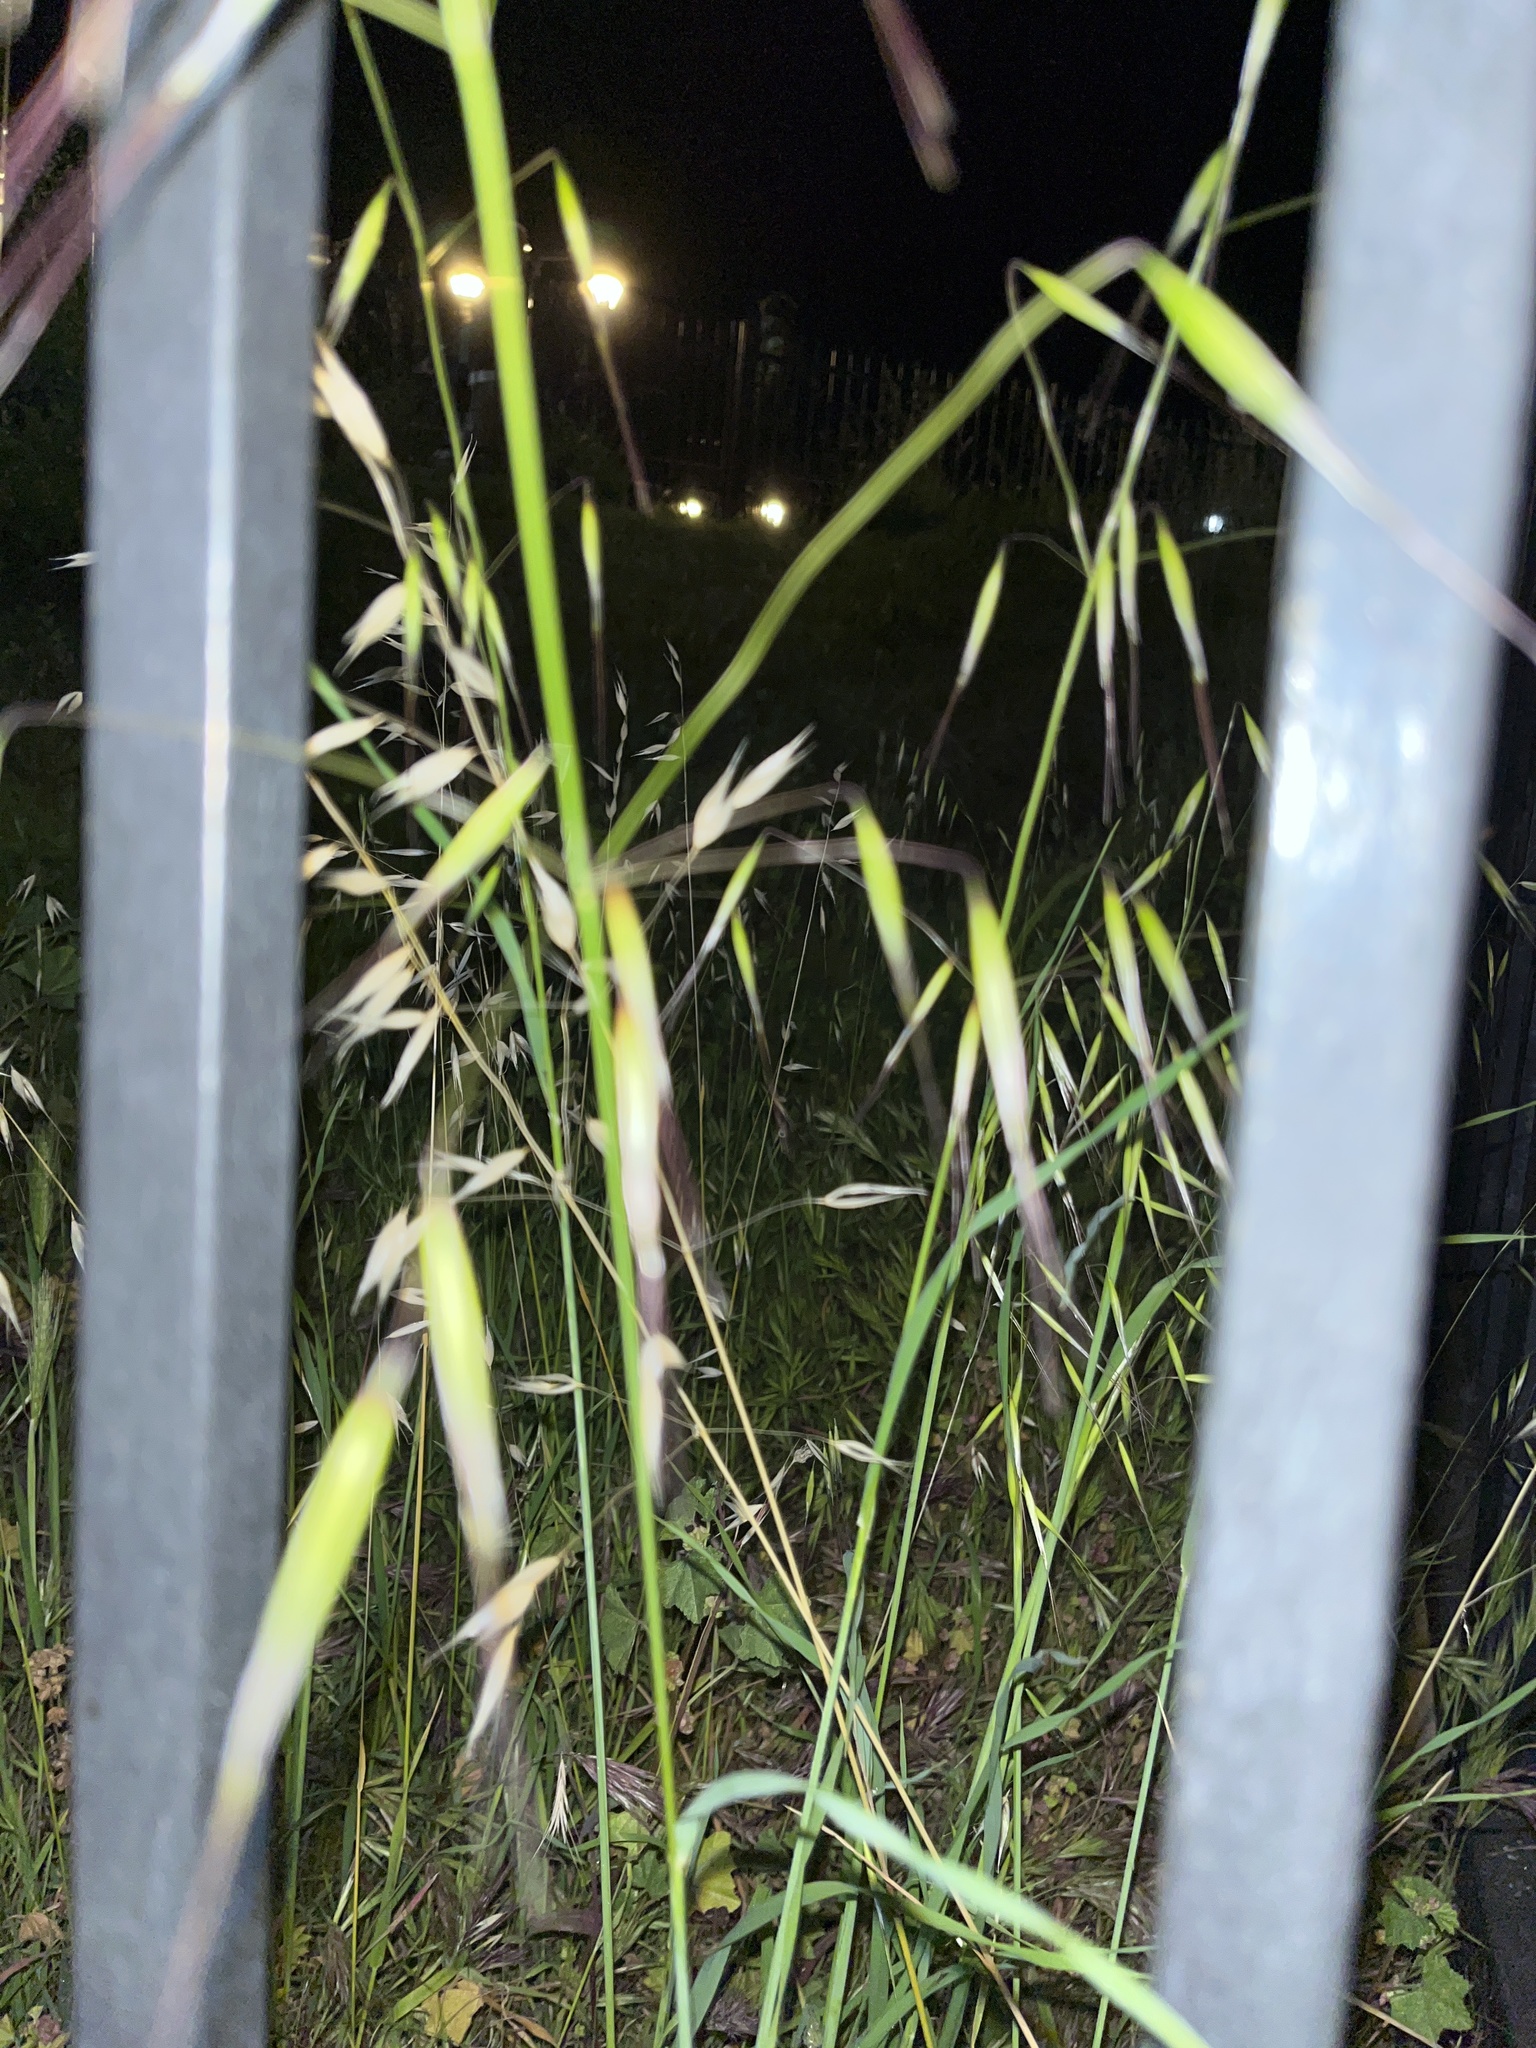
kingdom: Plantae
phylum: Tracheophyta
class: Liliopsida
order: Poales
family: Poaceae
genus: Avena
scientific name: Avena barbata
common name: Slender oat
